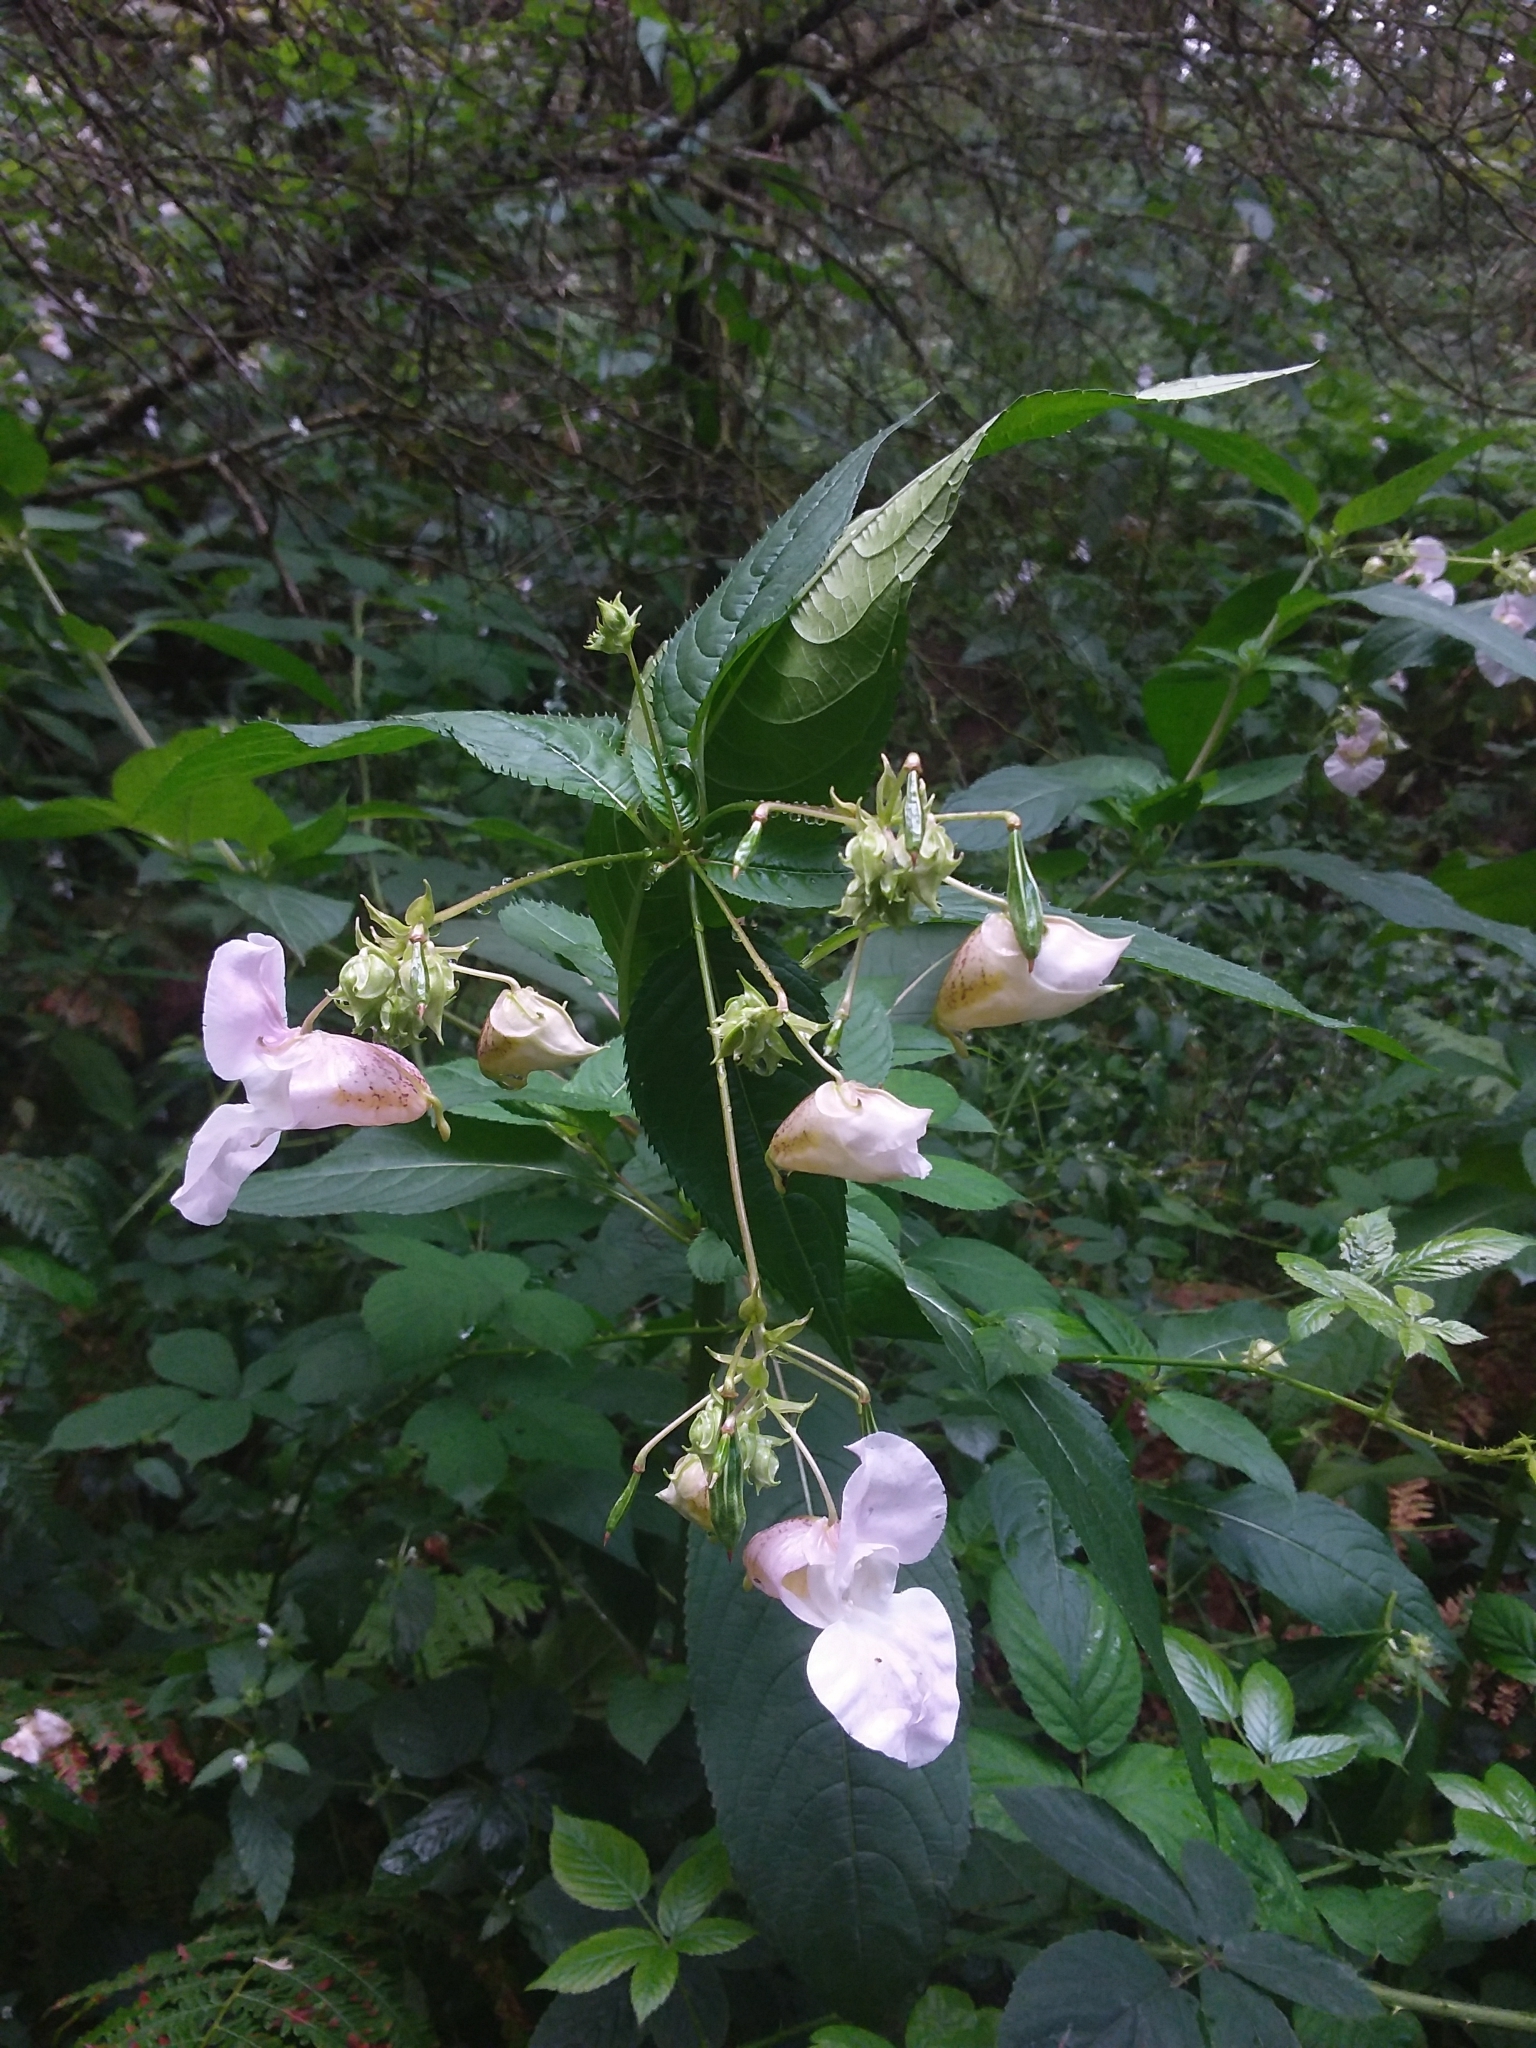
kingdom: Plantae
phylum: Tracheophyta
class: Magnoliopsida
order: Ericales
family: Balsaminaceae
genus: Impatiens
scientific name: Impatiens glandulifera
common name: Himalayan balsam
